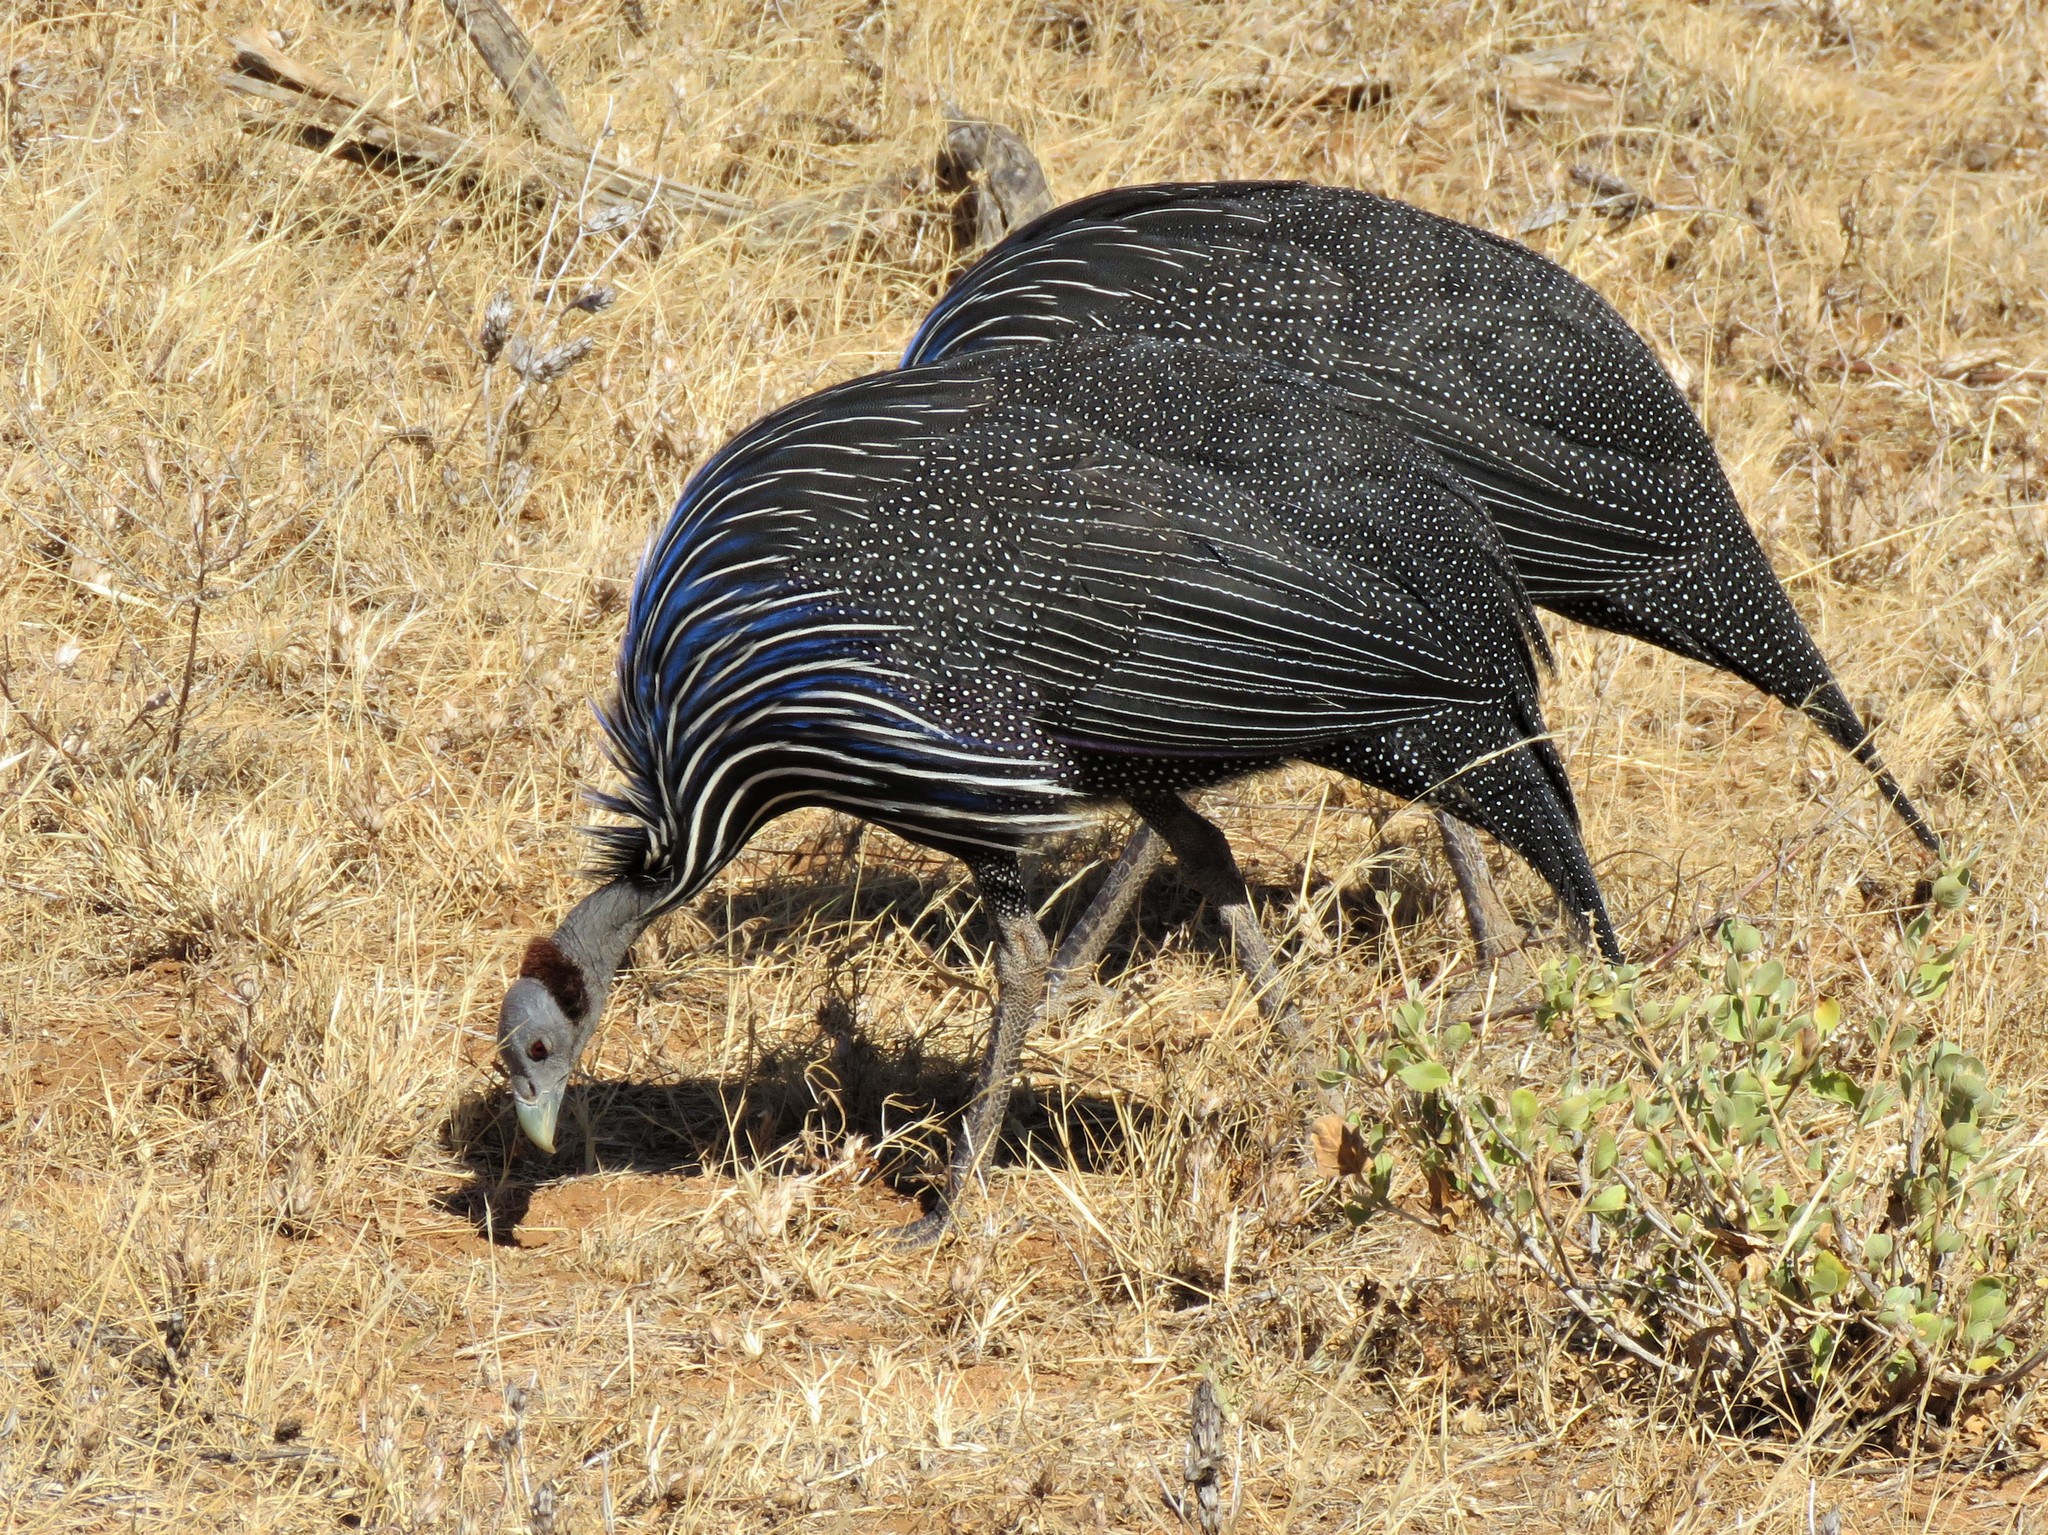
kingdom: Animalia
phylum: Chordata
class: Aves
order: Galliformes
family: Numididae
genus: Acryllium
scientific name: Acryllium vulturinum
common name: Vulturine guineafowl
